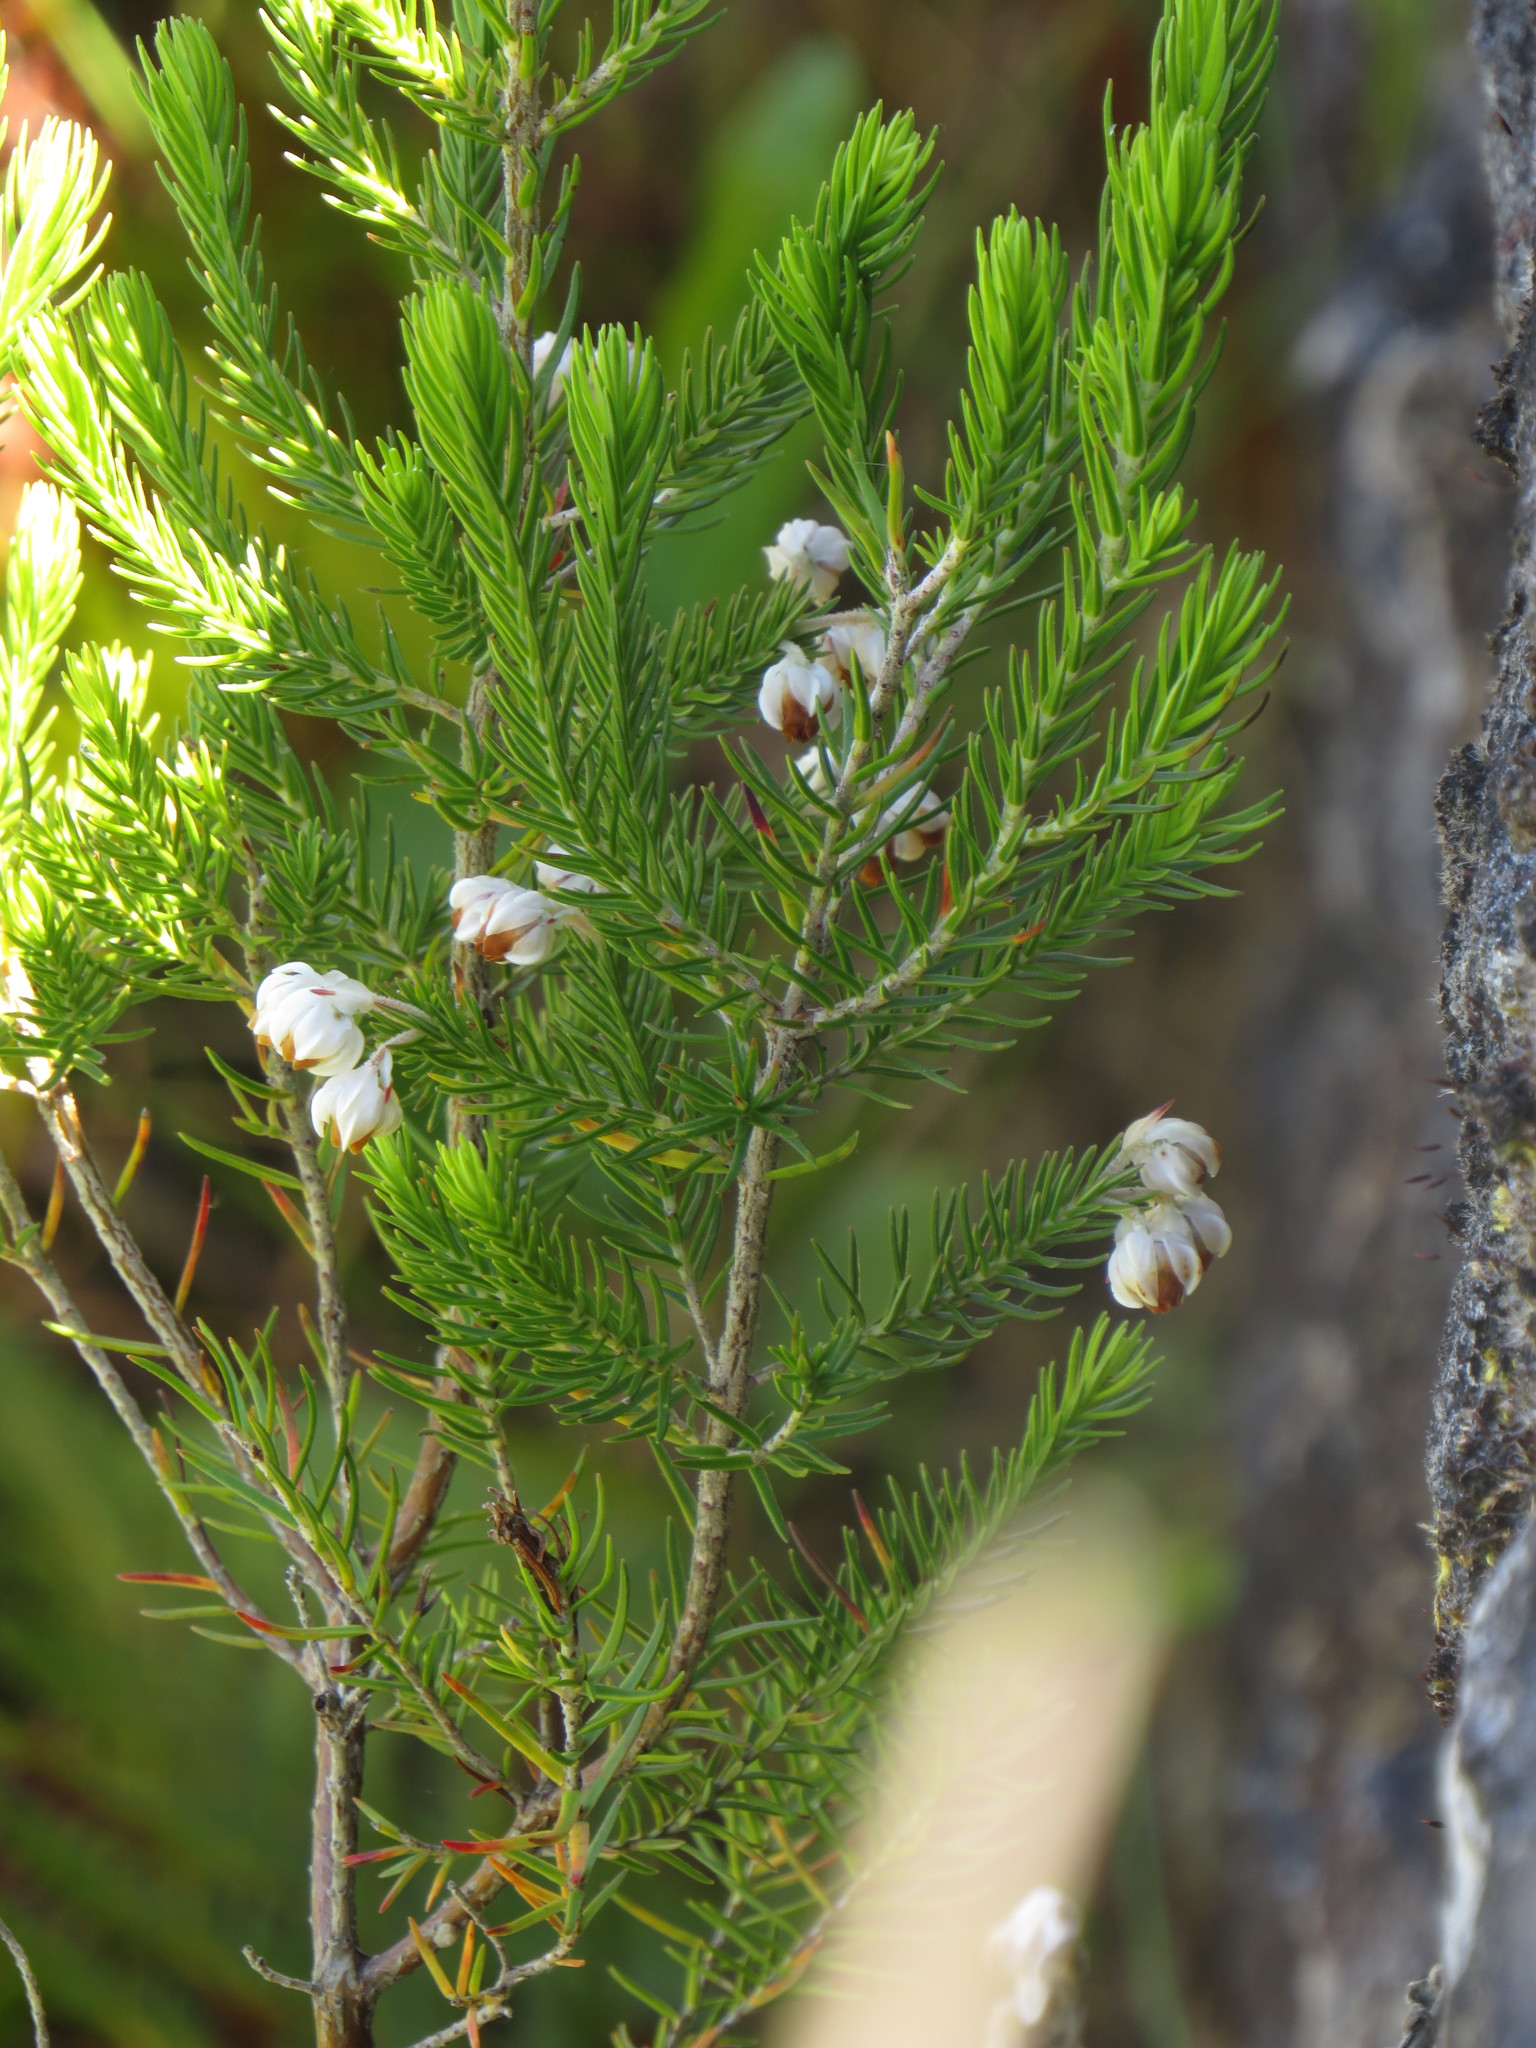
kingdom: Plantae
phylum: Tracheophyta
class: Magnoliopsida
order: Ericales
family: Ericaceae
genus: Erica
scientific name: Erica triflora
